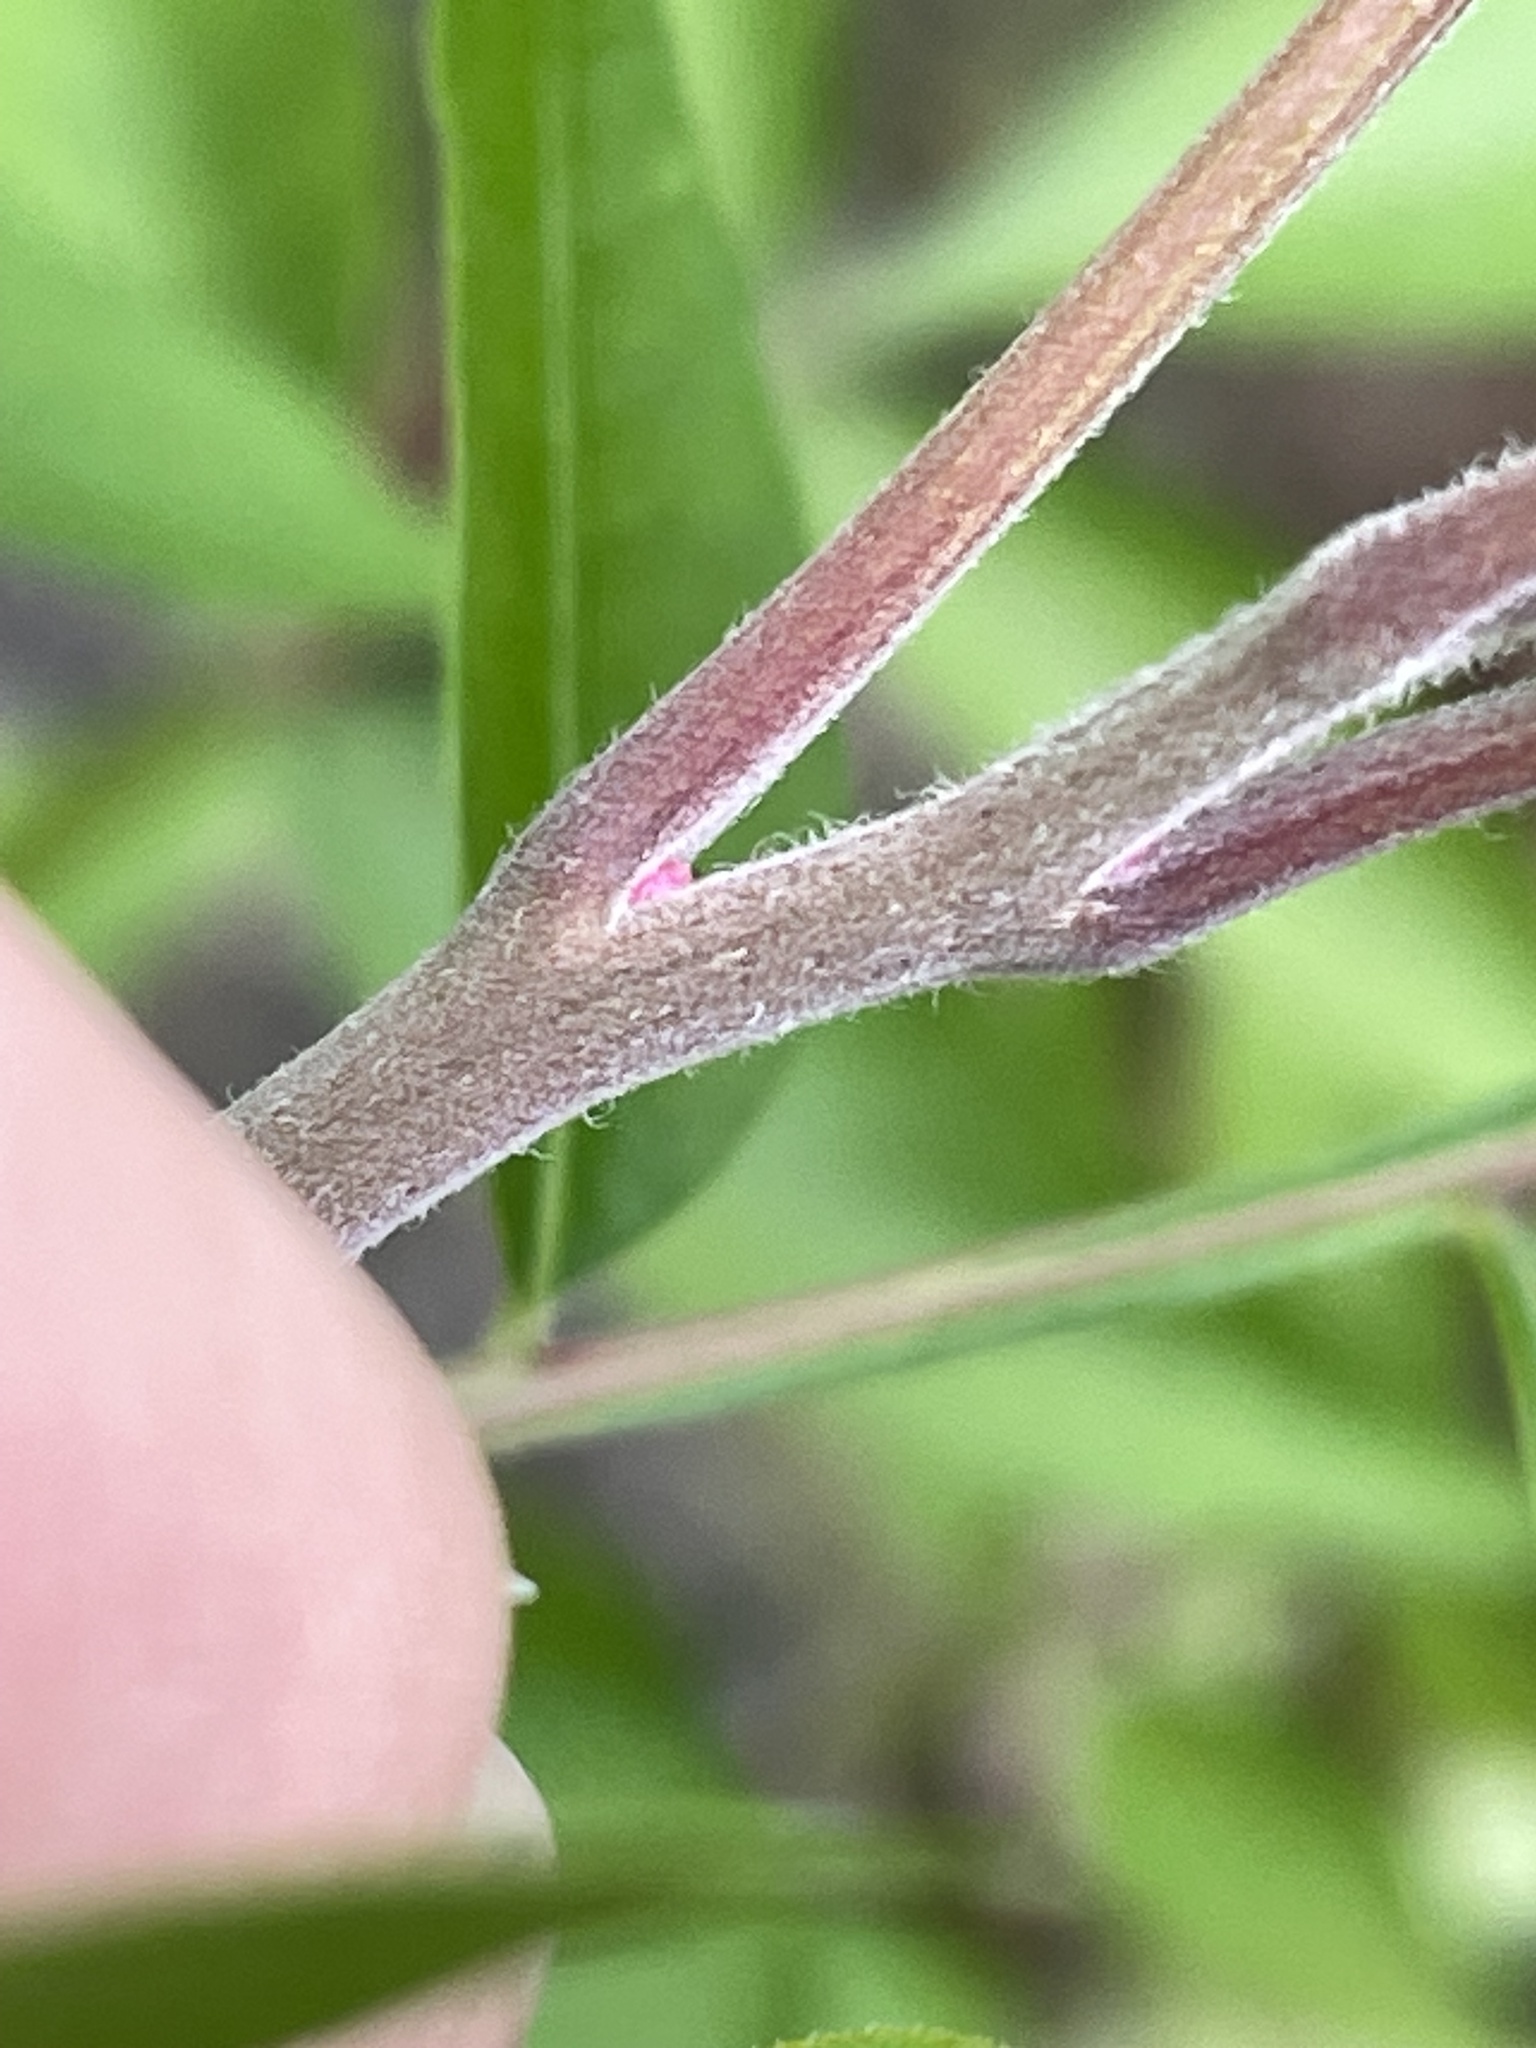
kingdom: Plantae
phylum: Tracheophyta
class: Magnoliopsida
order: Sapindales
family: Anacardiaceae
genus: Rhus
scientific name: Rhus lanceolata
